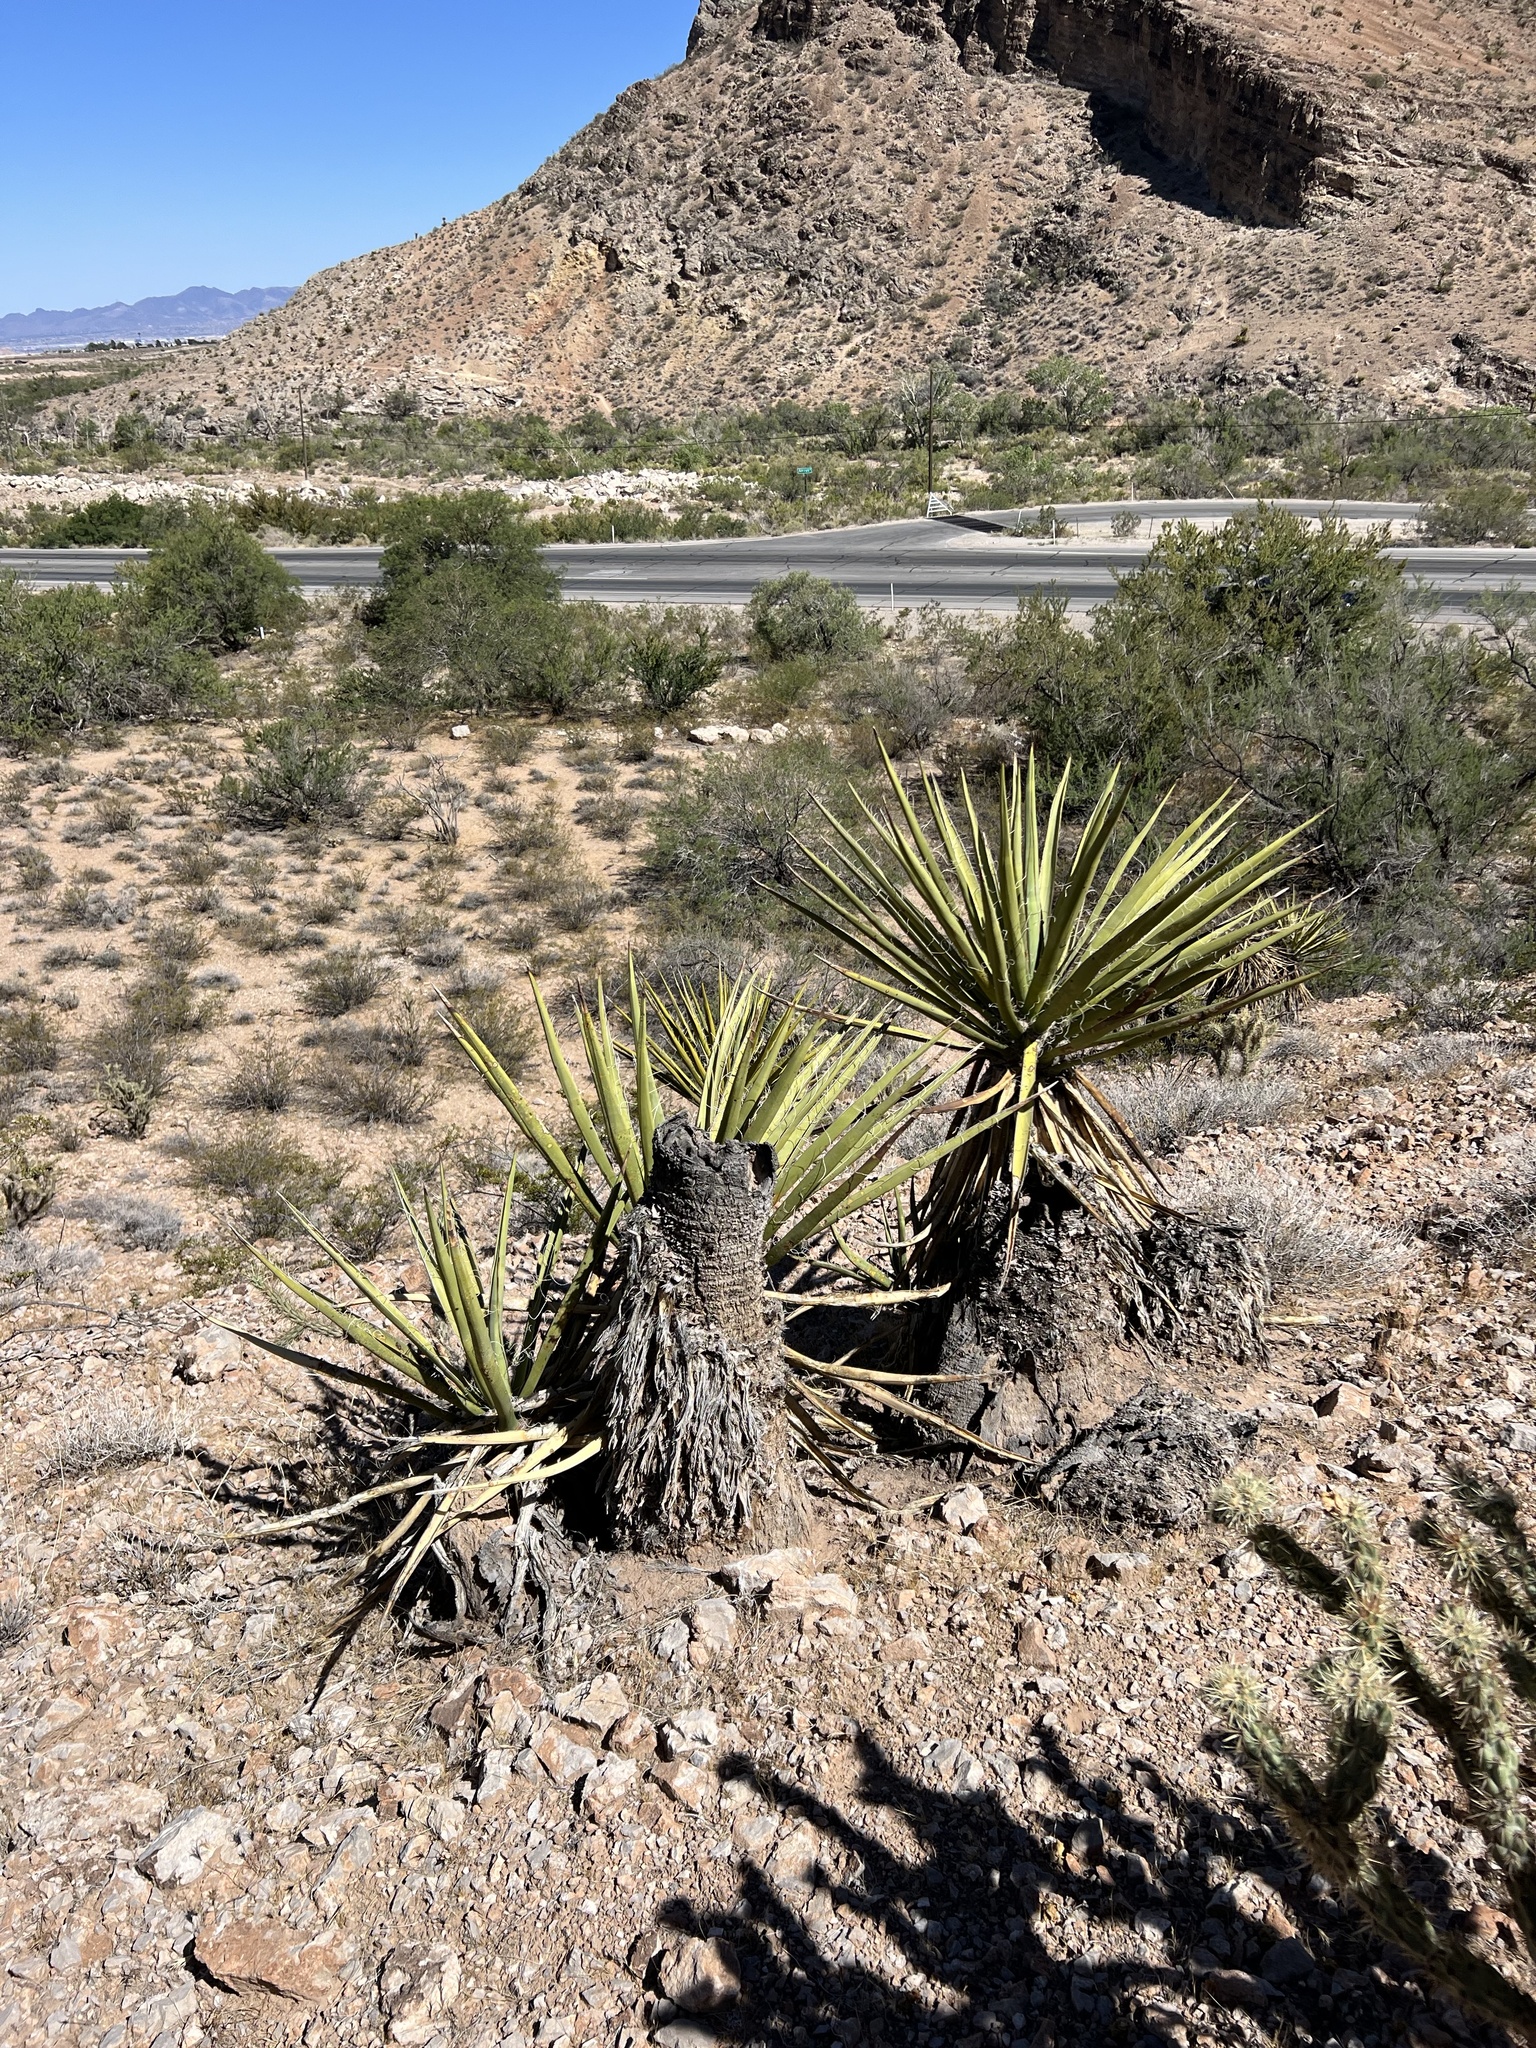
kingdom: Plantae
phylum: Tracheophyta
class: Liliopsida
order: Asparagales
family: Asparagaceae
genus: Yucca
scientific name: Yucca schidigera
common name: Mojave yucca
